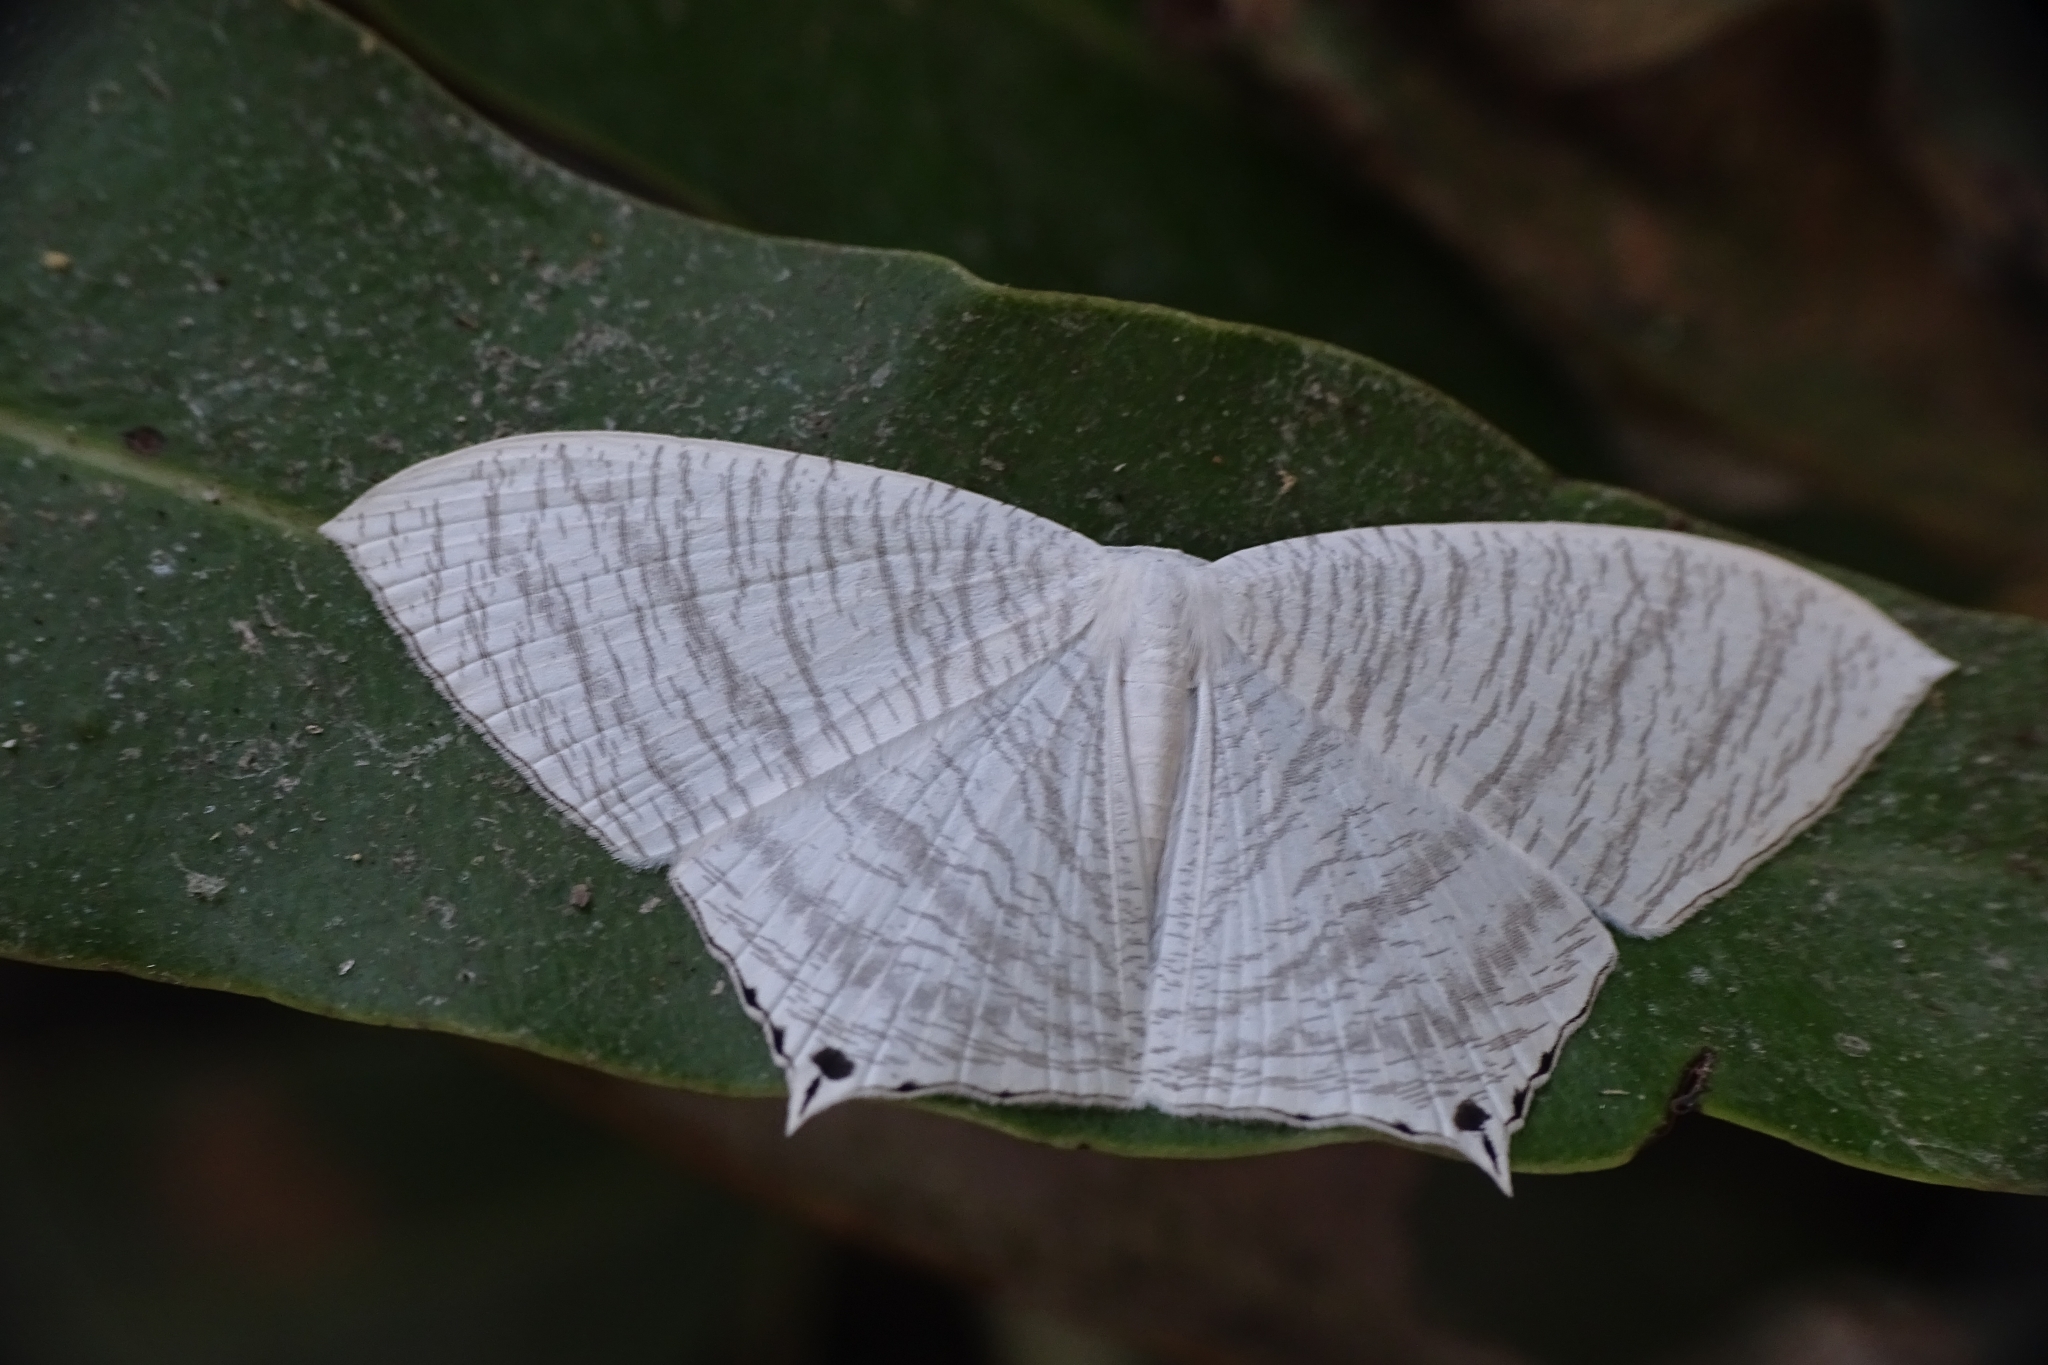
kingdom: Animalia
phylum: Arthropoda
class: Insecta
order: Lepidoptera
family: Uraniidae
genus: Micronia
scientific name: Micronia aculeata
